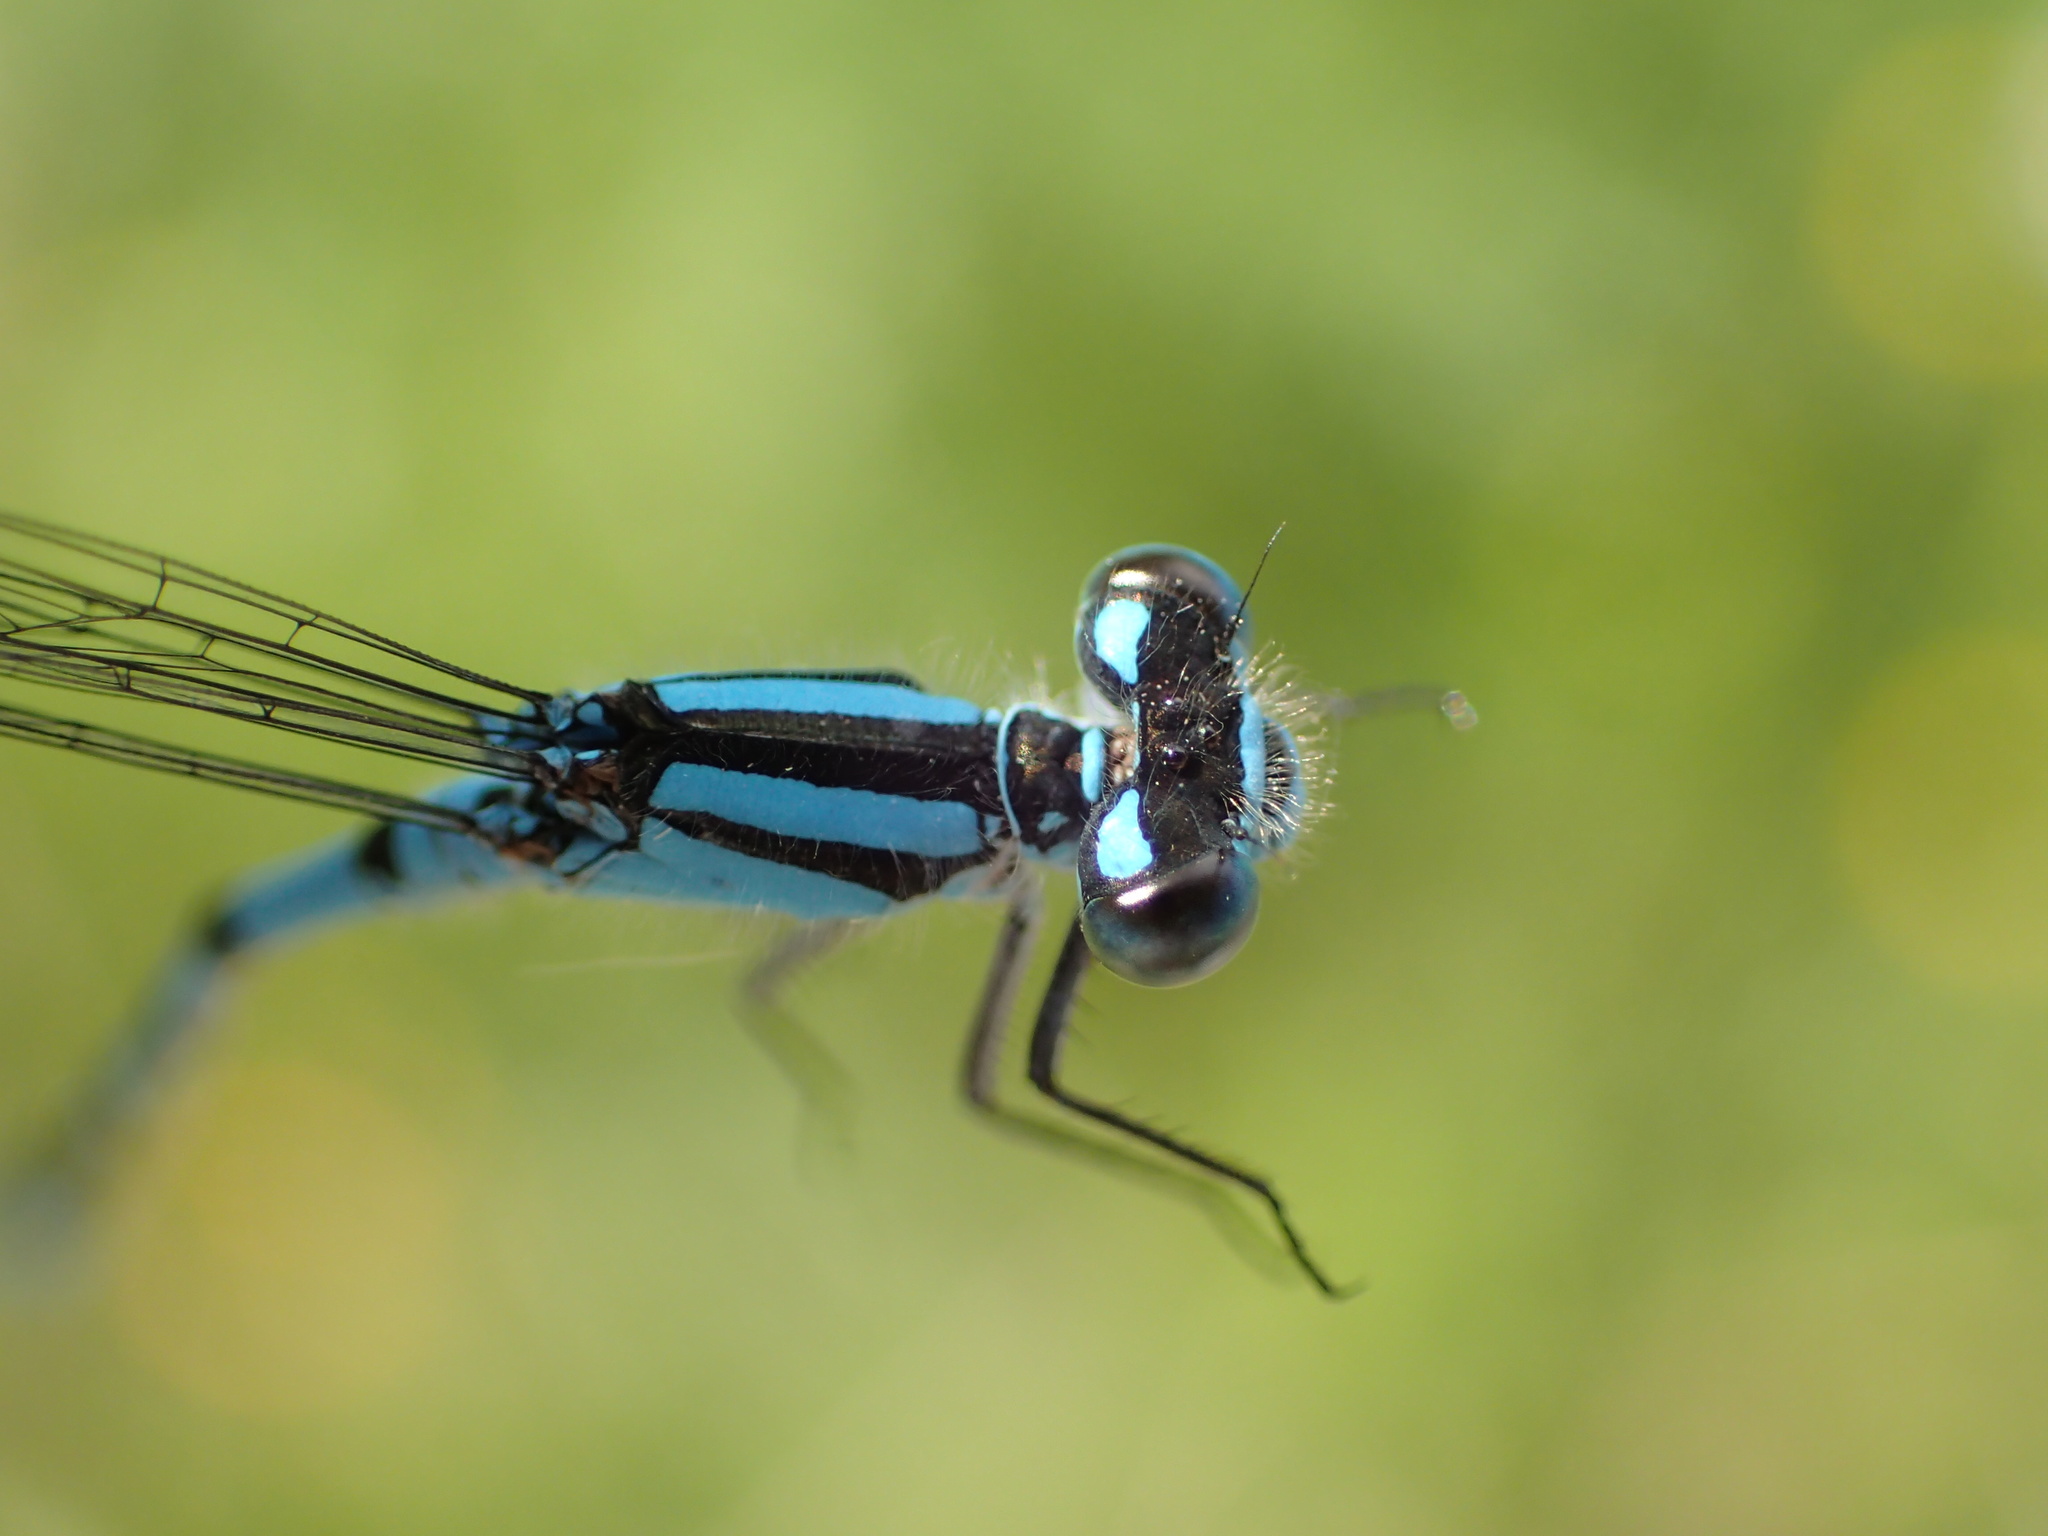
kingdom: Animalia
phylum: Arthropoda
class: Insecta
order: Odonata
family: Coenagrionidae
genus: Enallagma
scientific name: Enallagma hageni
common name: Hagen's bluet
